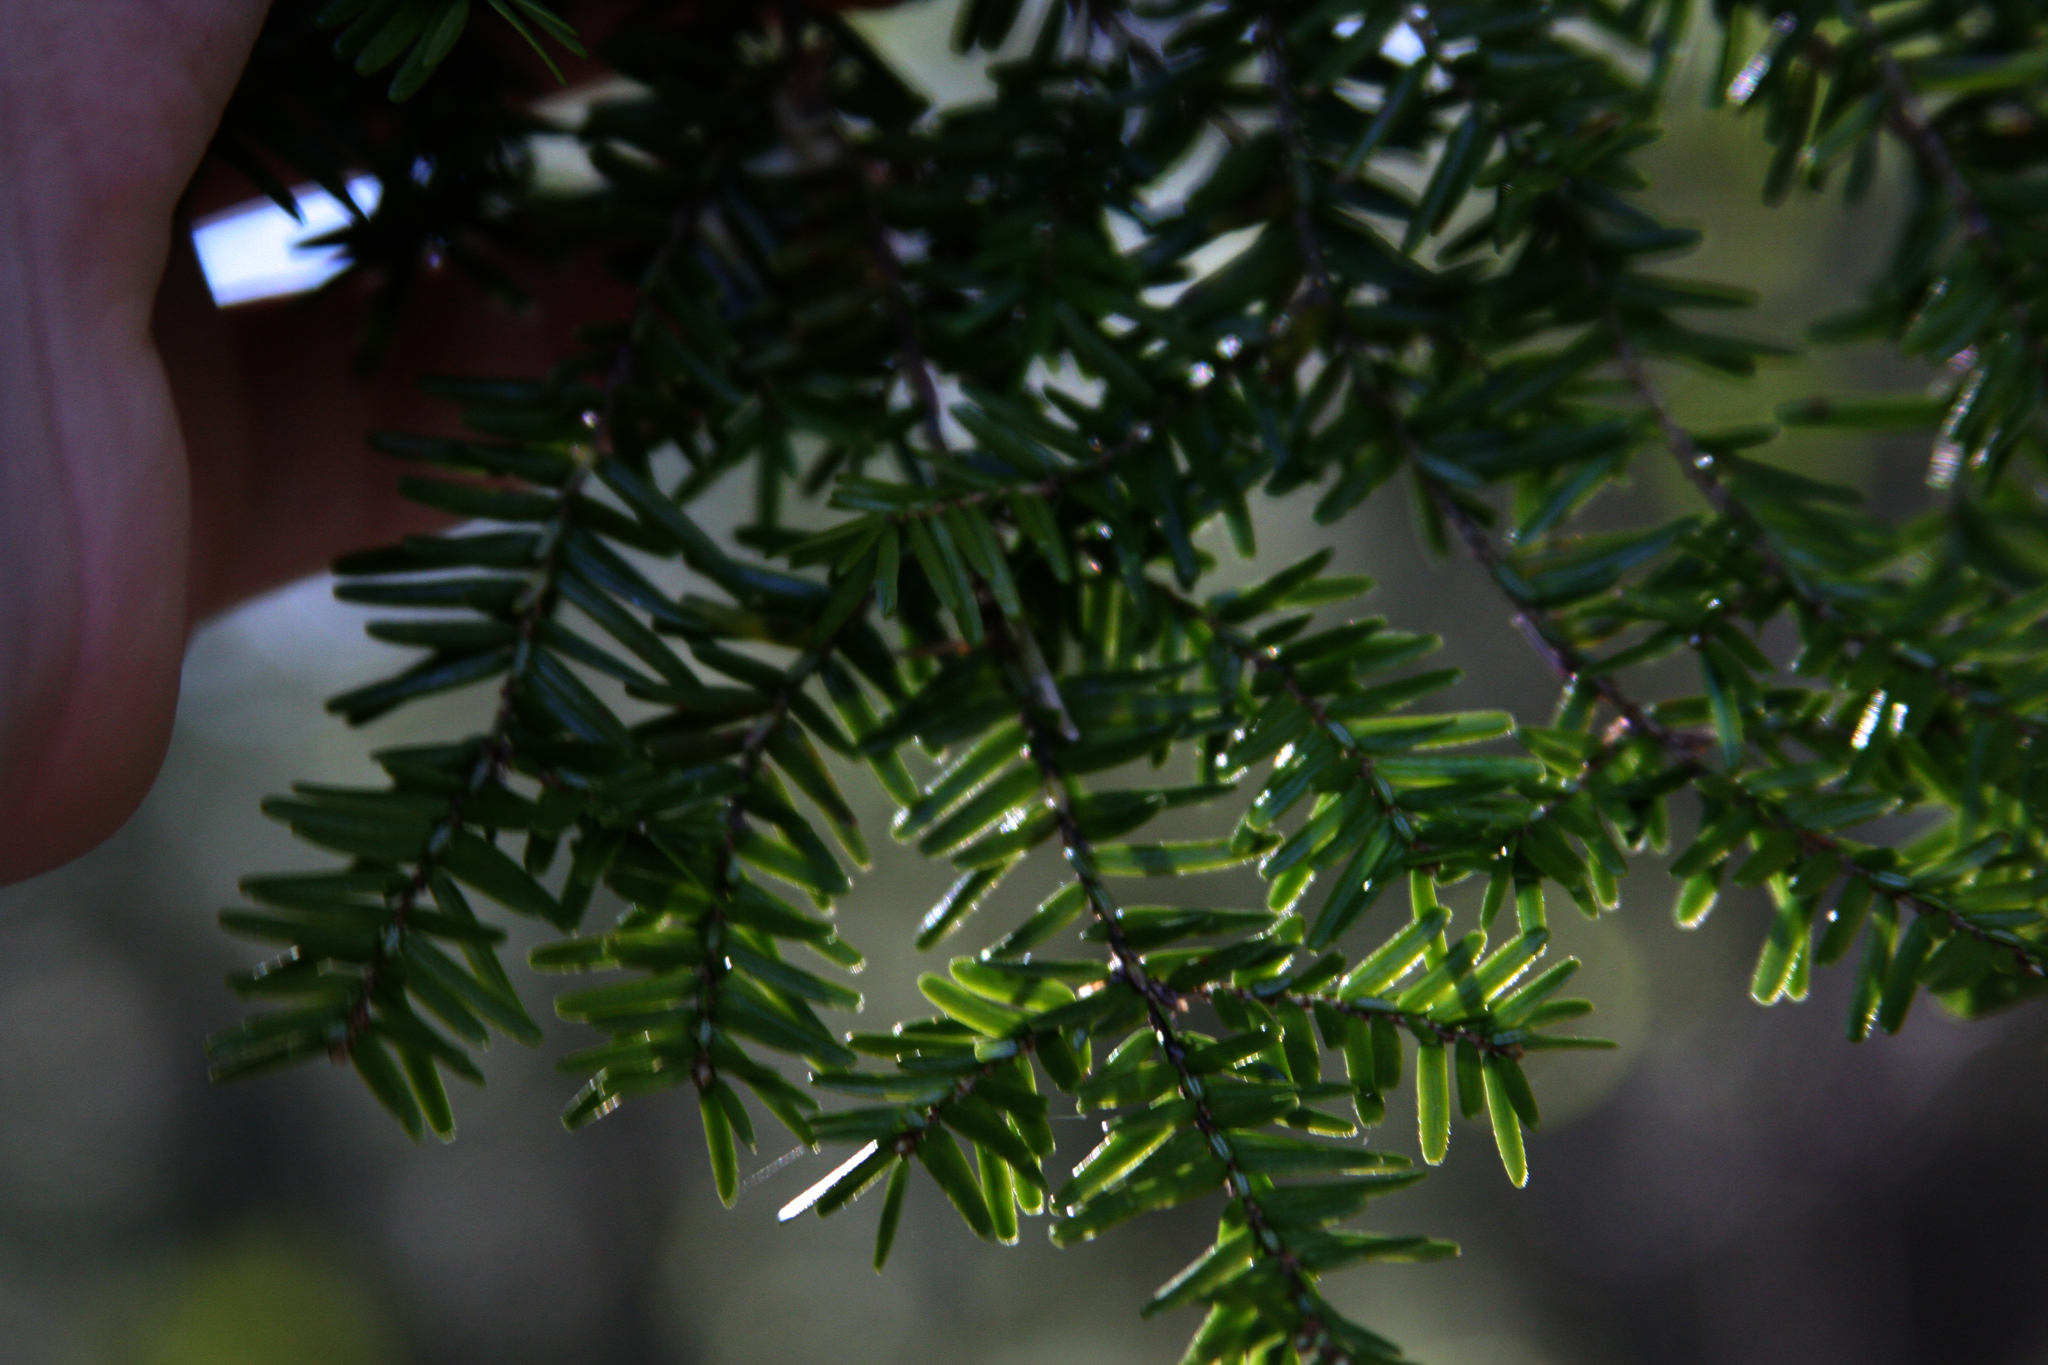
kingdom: Plantae
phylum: Tracheophyta
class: Pinopsida
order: Pinales
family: Pinaceae
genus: Tsuga
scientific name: Tsuga canadensis
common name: Eastern hemlock
